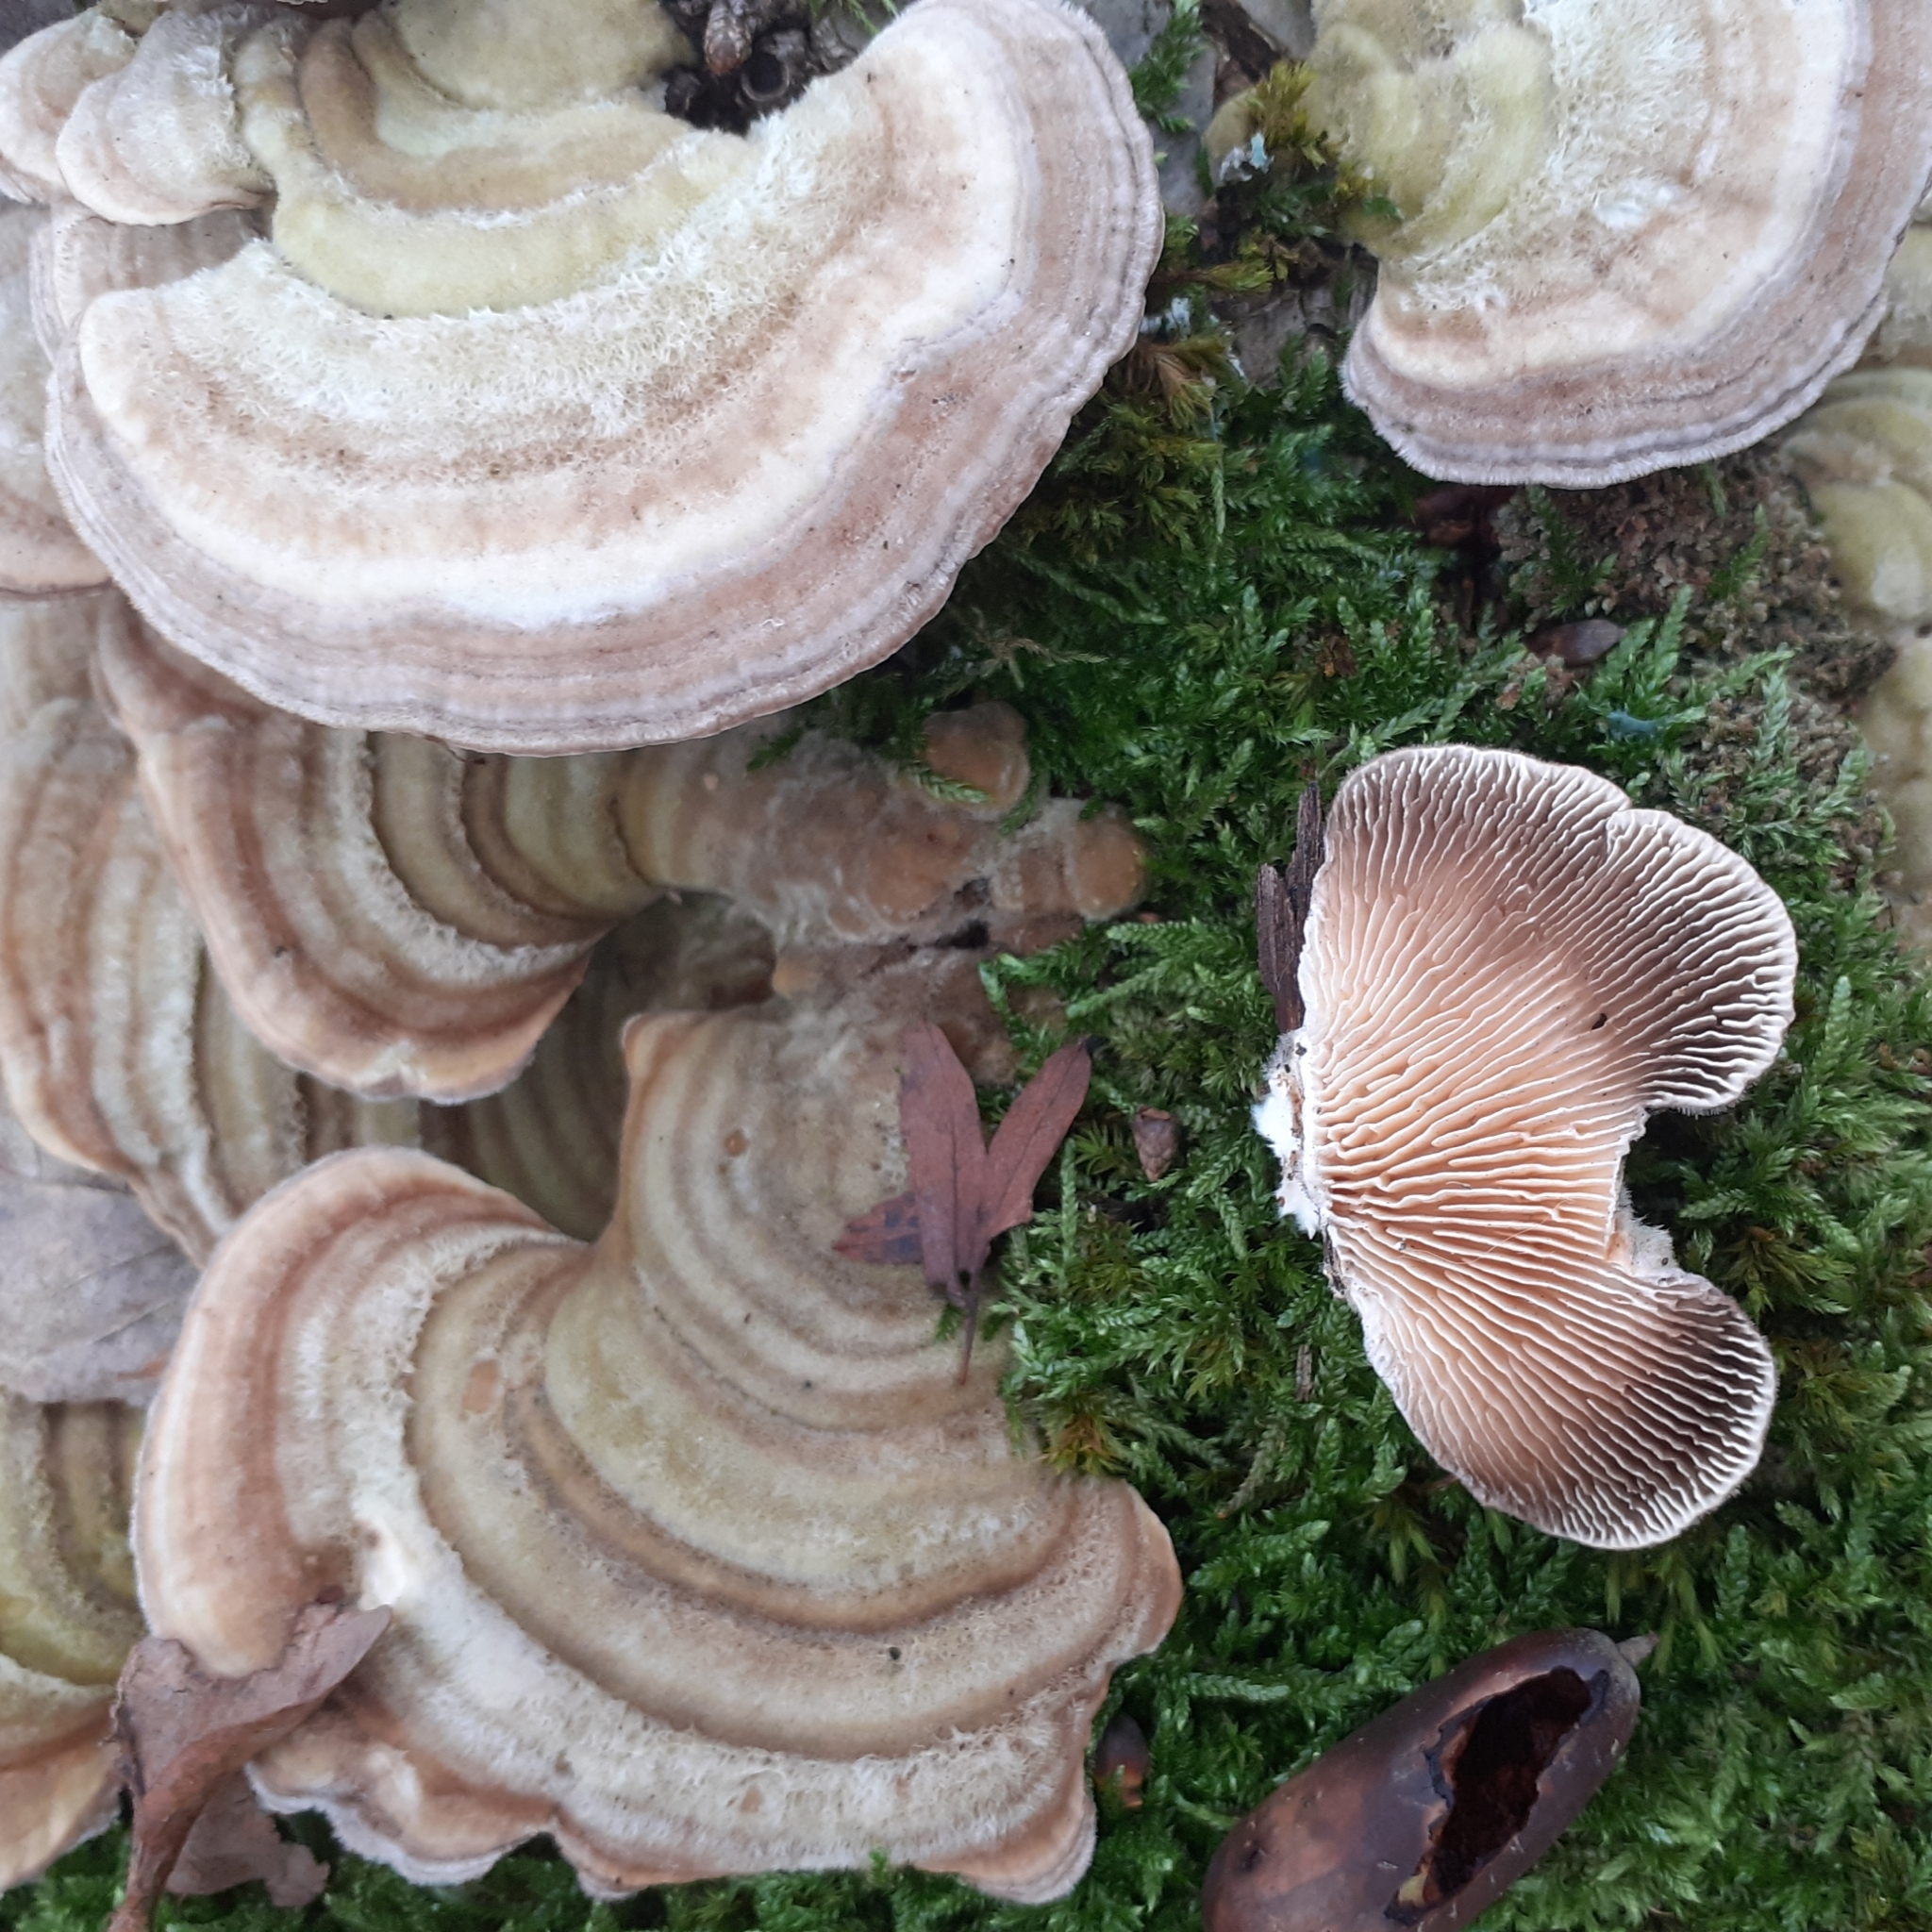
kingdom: Fungi
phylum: Basidiomycota
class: Agaricomycetes
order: Polyporales
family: Polyporaceae
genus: Lenzites
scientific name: Lenzites betulinus
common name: Birch mazegill
